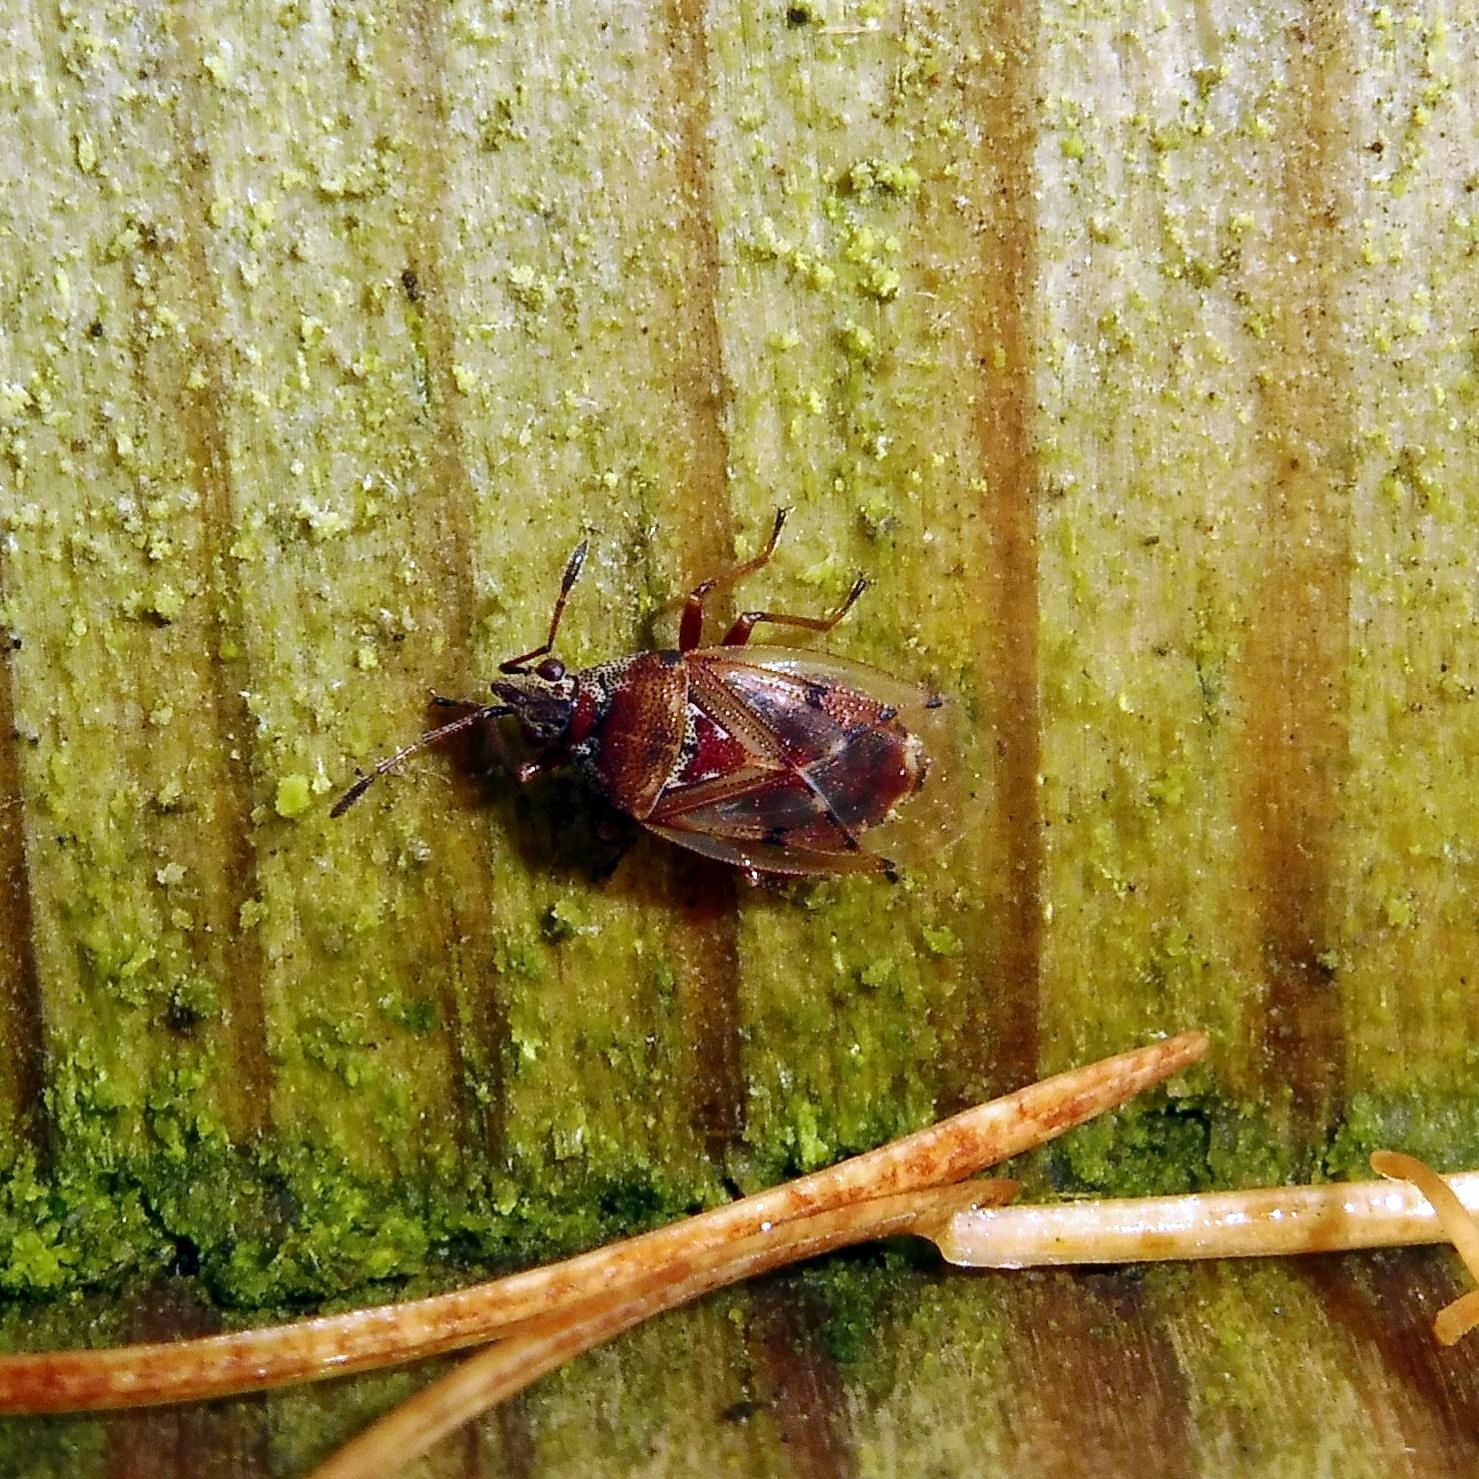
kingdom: Animalia
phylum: Arthropoda
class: Insecta
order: Hemiptera
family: Lygaeidae
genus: Kleidocerys
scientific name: Kleidocerys resedae
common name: Birch catkin bug
